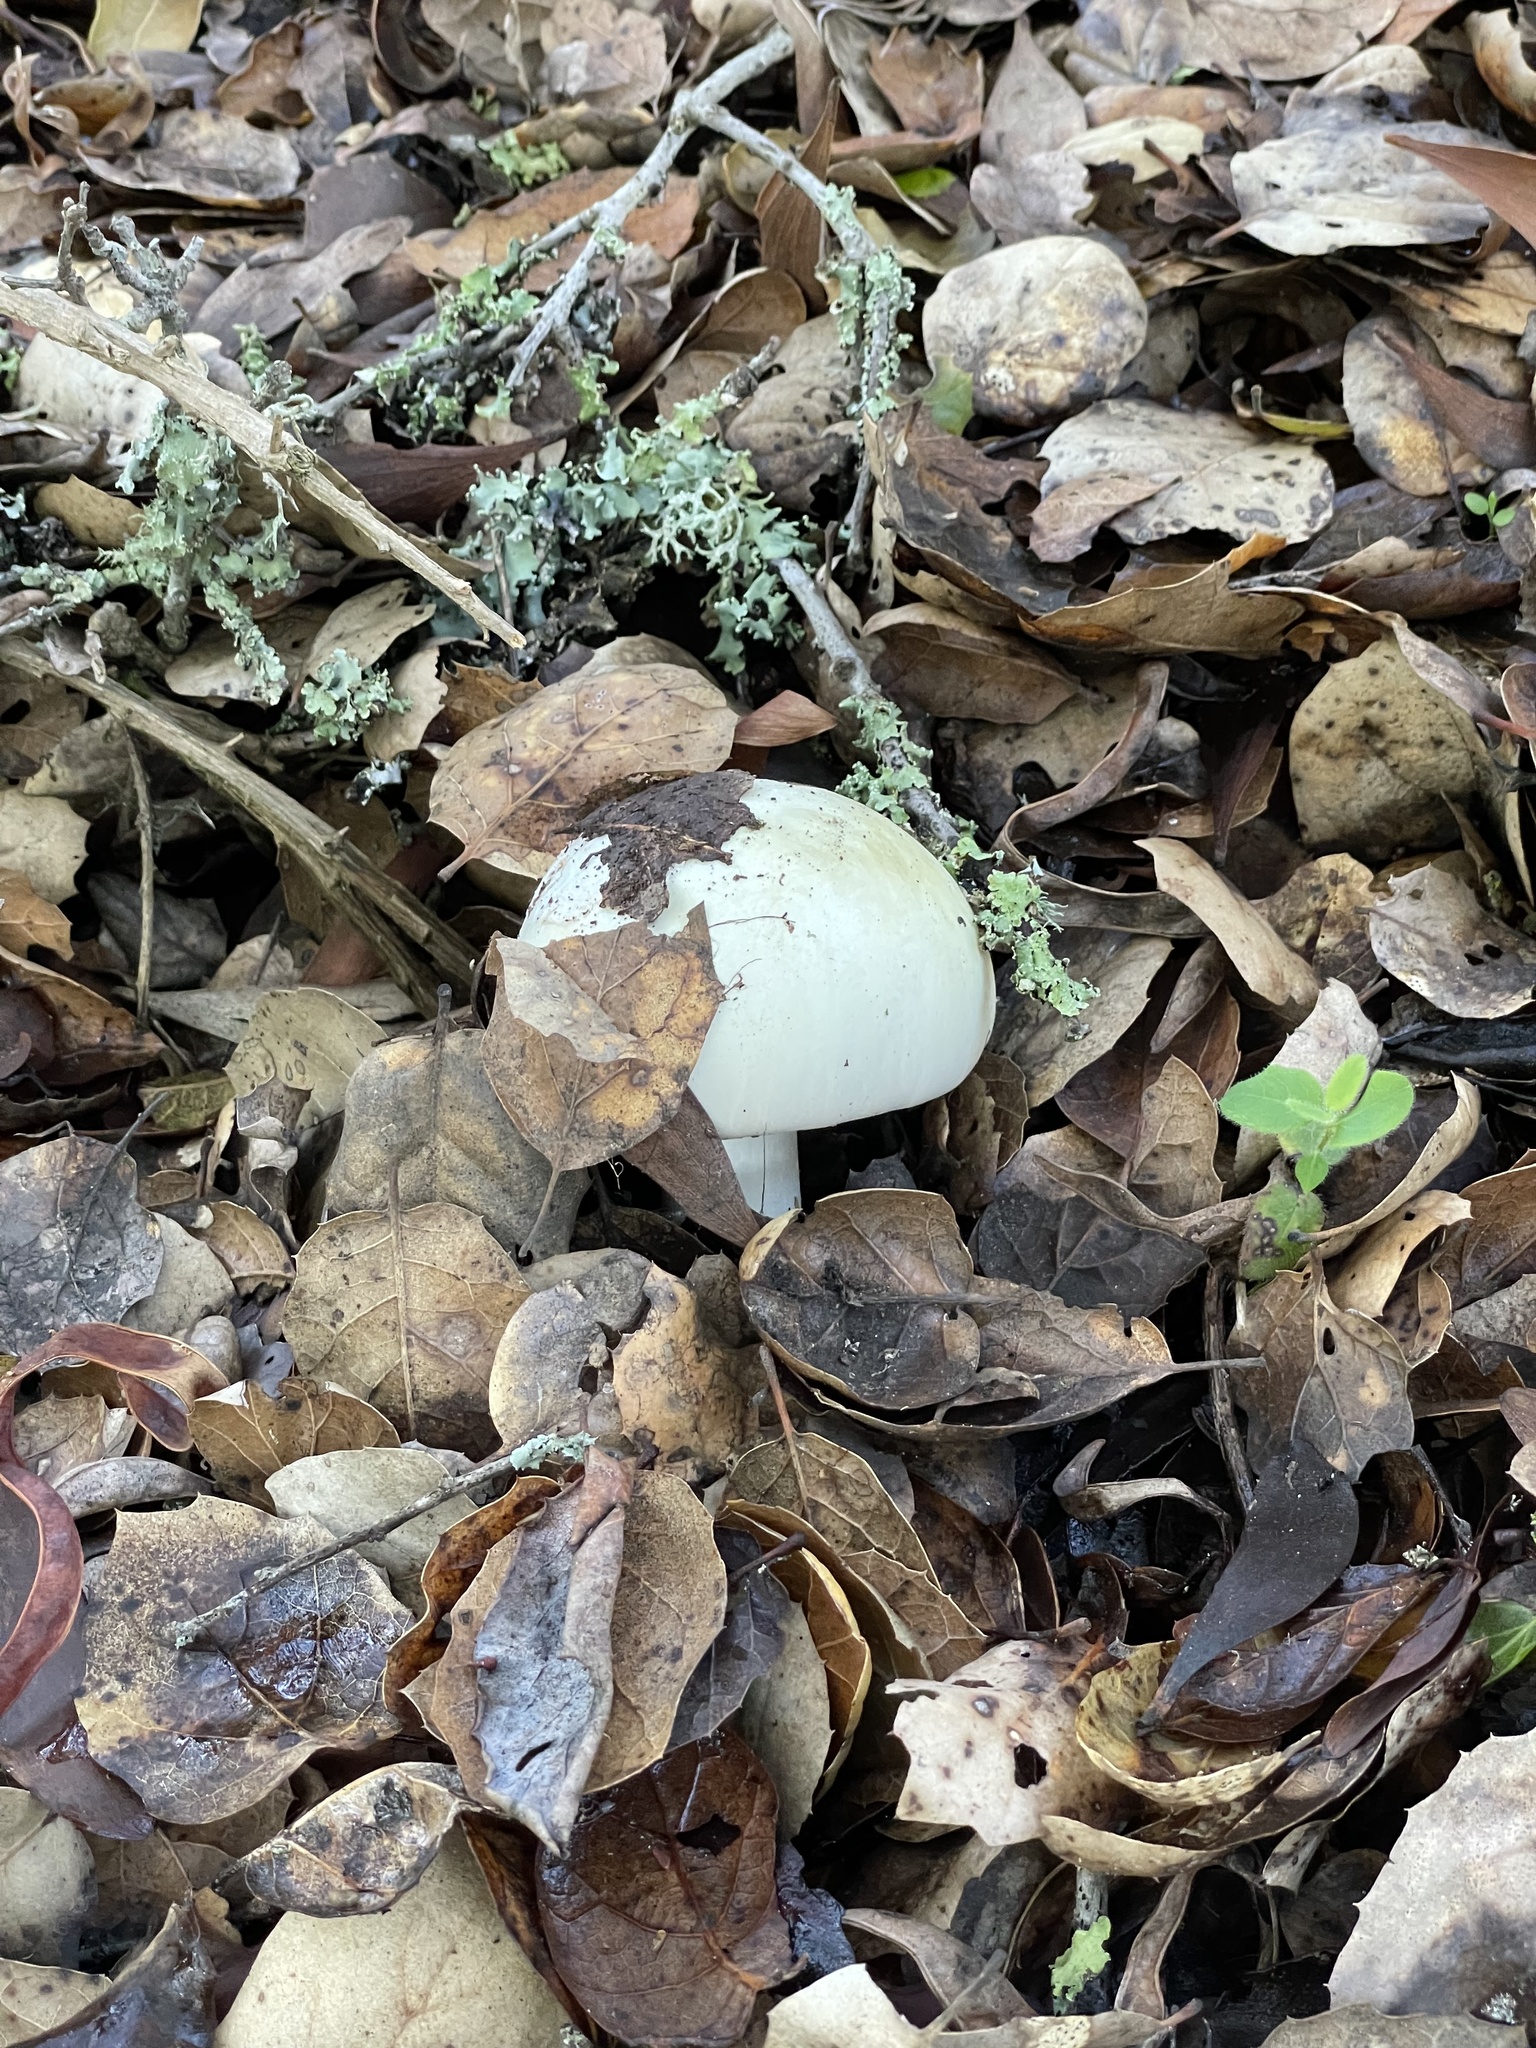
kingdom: Fungi
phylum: Basidiomycota
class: Agaricomycetes
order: Agaricales
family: Amanitaceae
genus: Amanita
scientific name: Amanita phalloides
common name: Death cap
